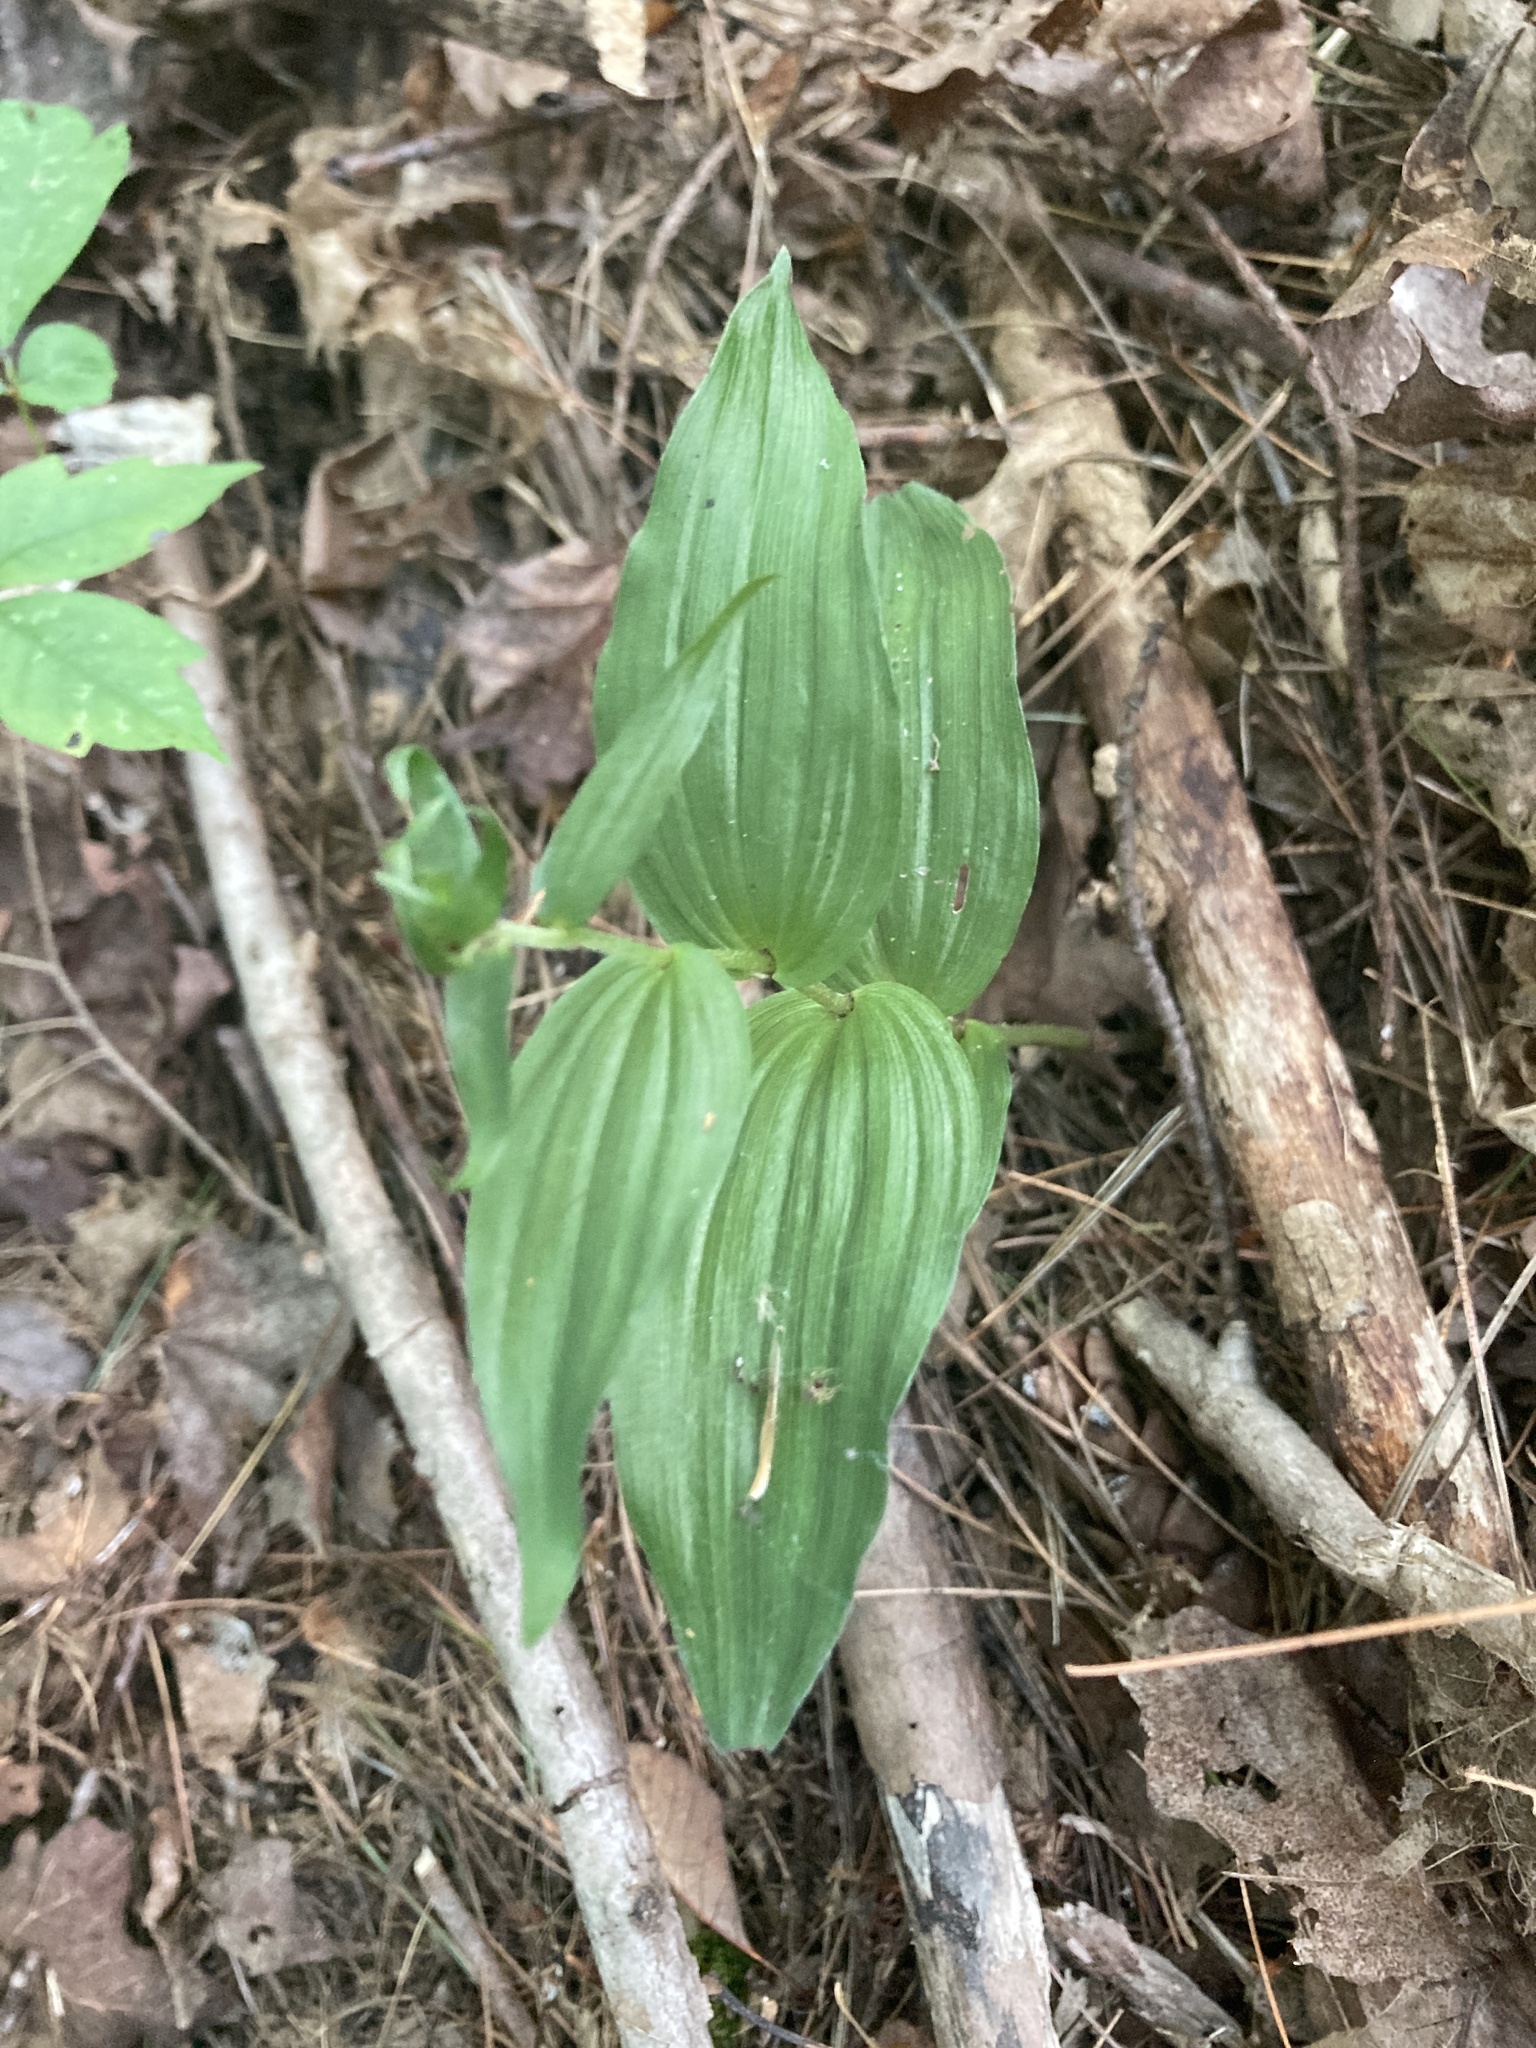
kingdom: Plantae
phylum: Tracheophyta
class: Liliopsida
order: Asparagales
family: Orchidaceae
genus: Epipactis
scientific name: Epipactis helleborine
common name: Broad-leaved helleborine
